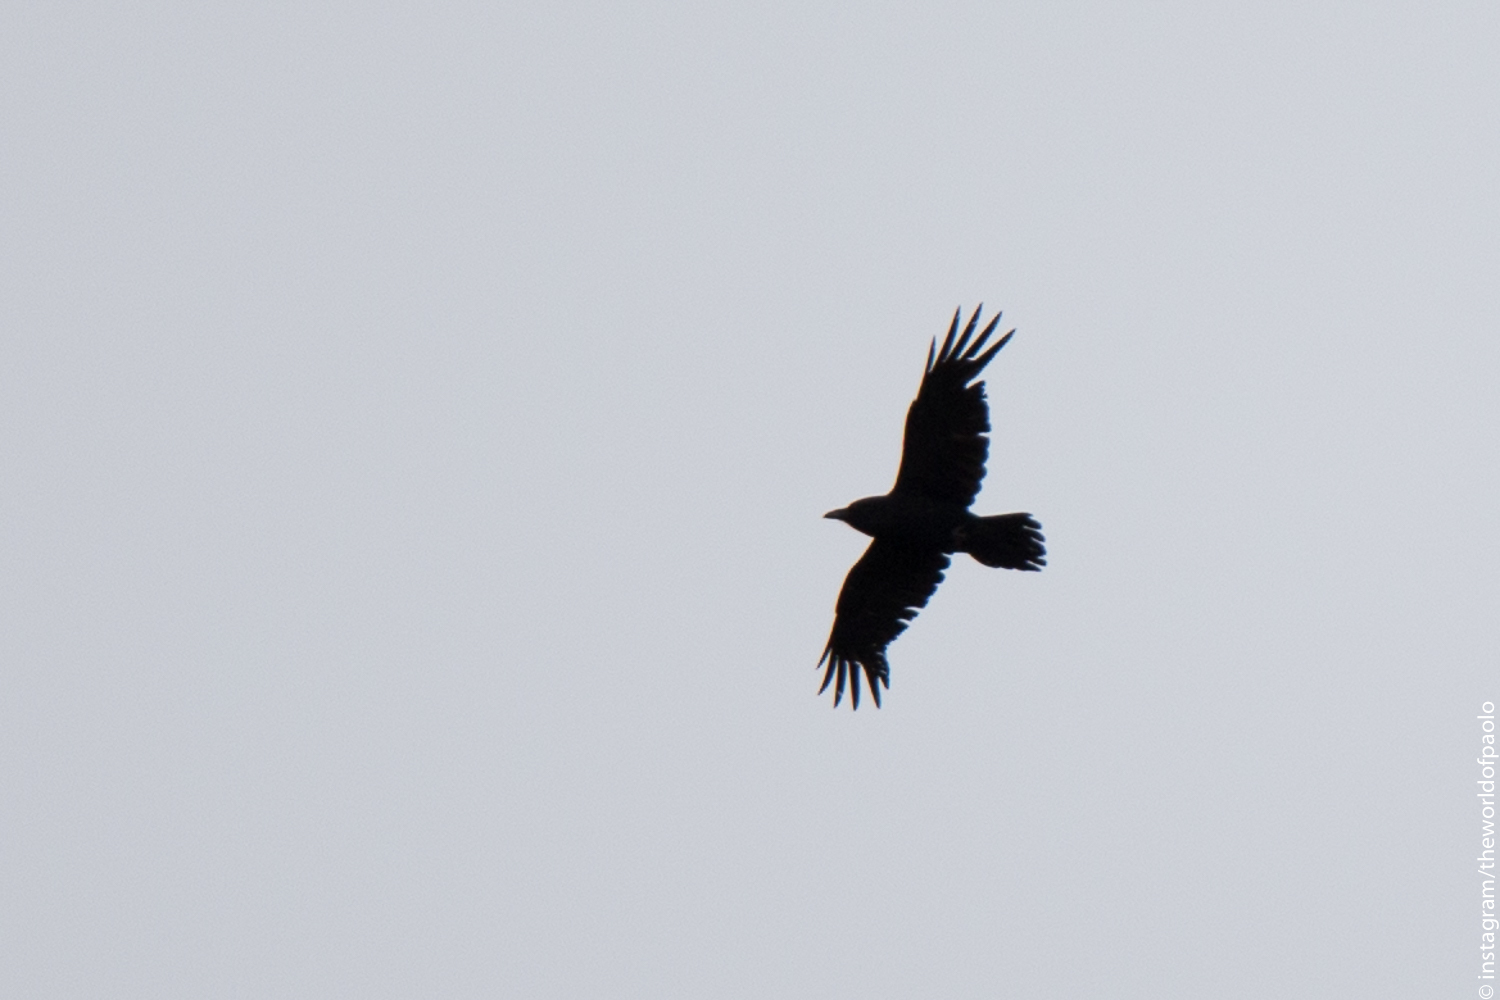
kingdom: Animalia
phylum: Chordata
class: Aves
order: Passeriformes
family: Corvidae
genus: Corvus
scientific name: Corvus corax
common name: Common raven
